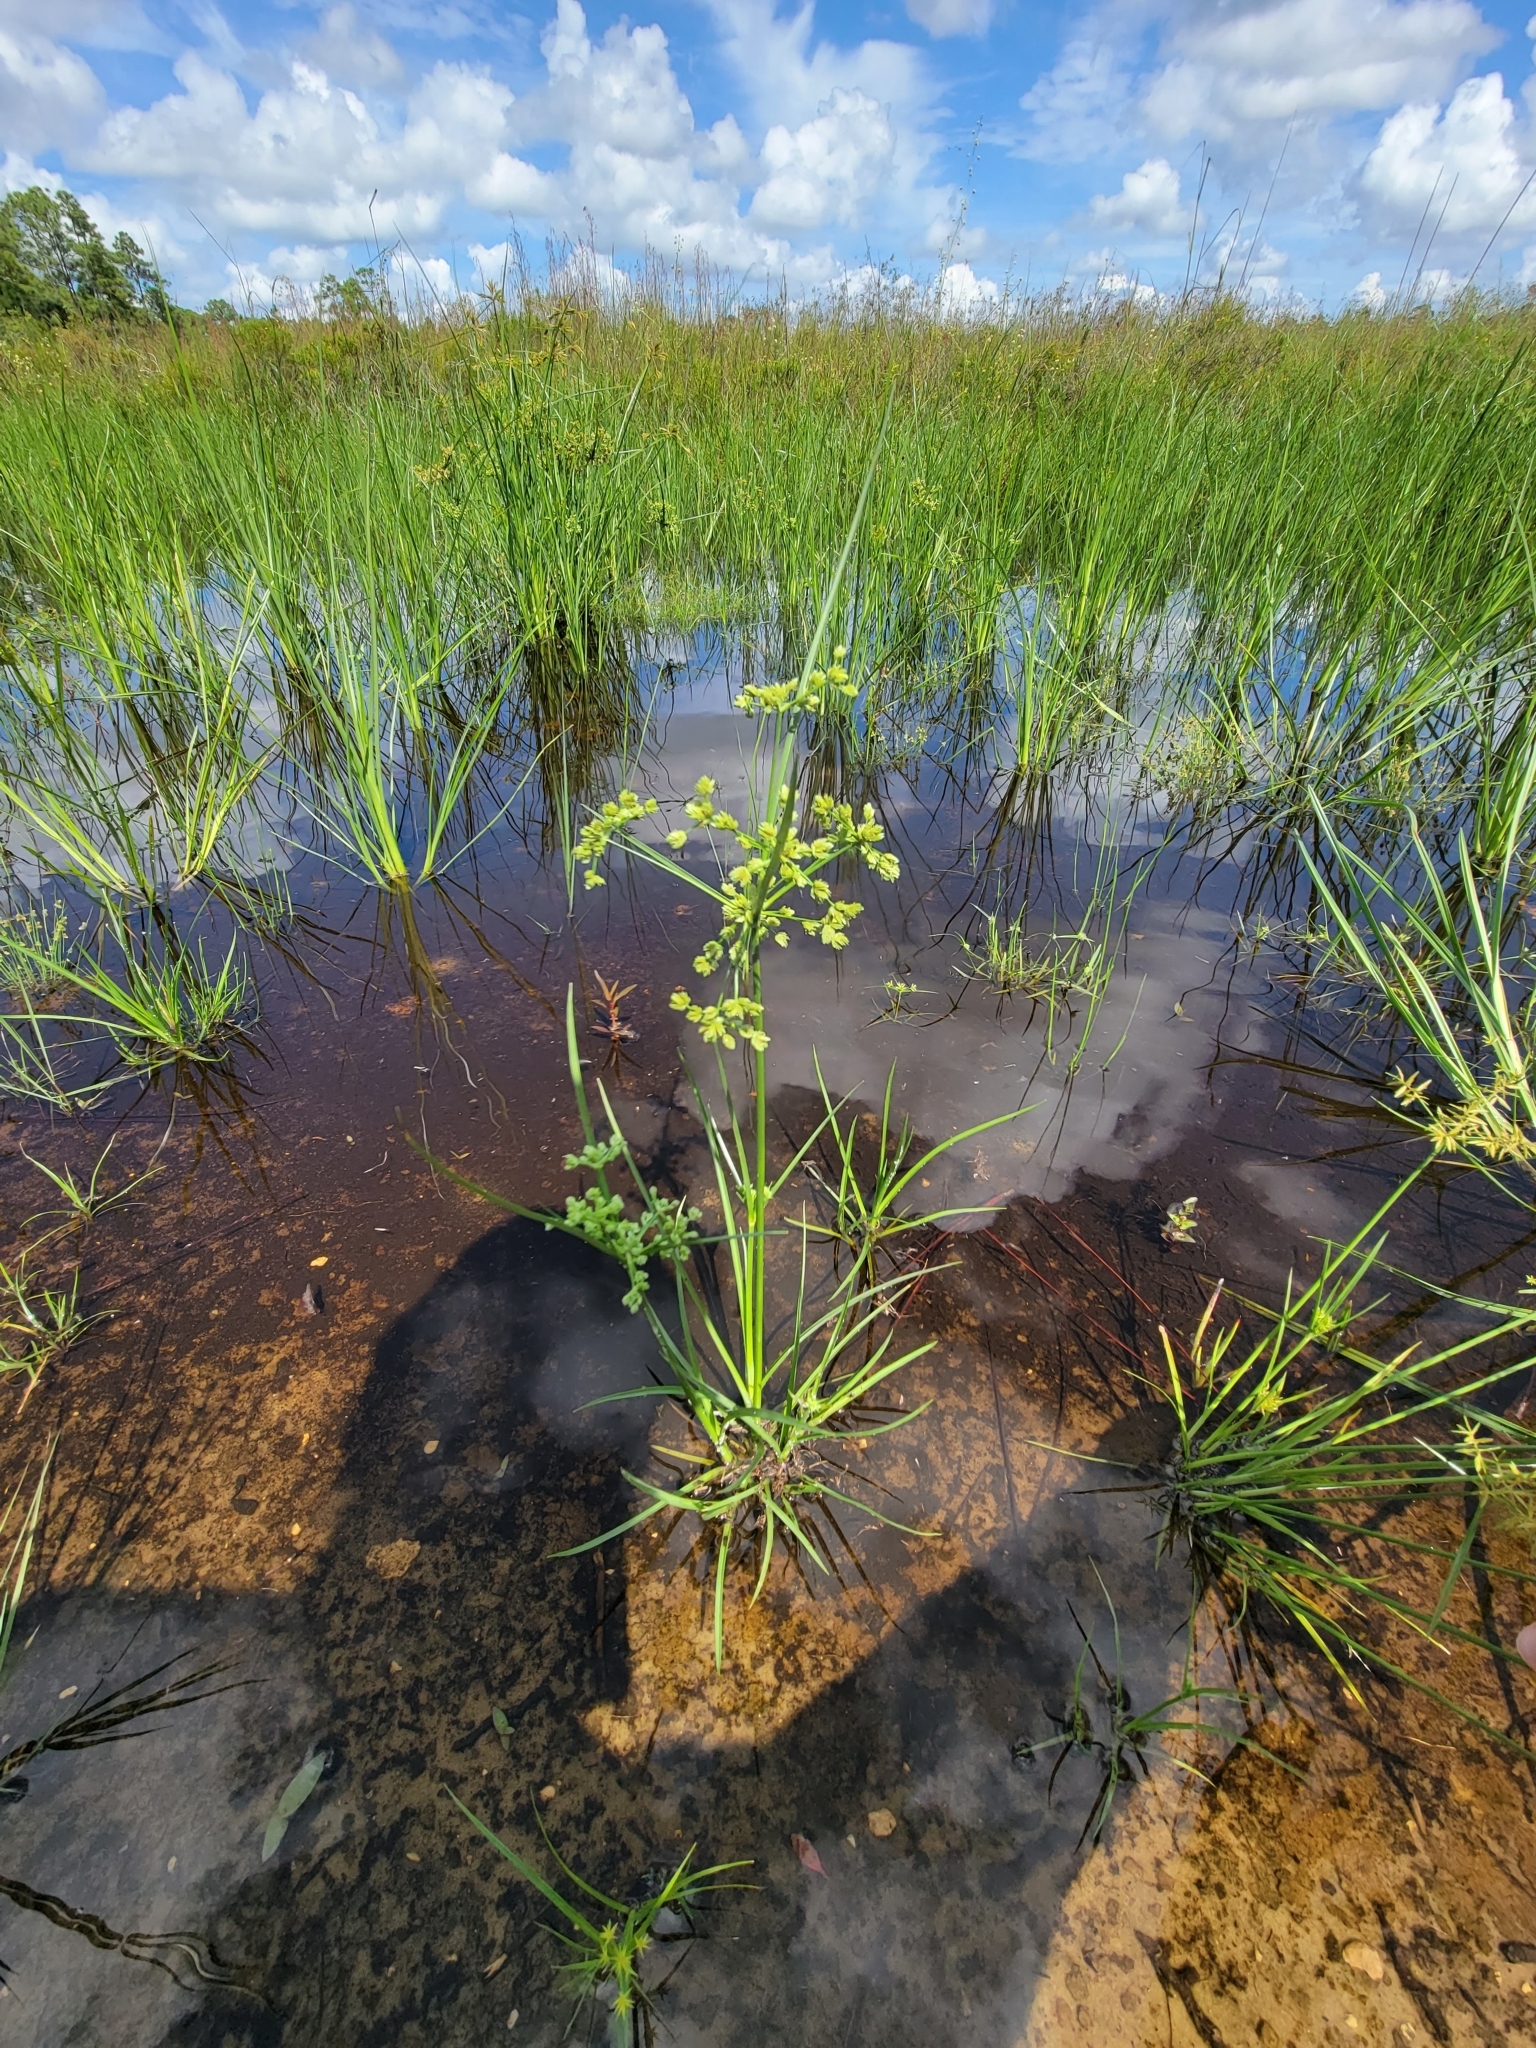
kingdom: Plantae
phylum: Tracheophyta
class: Liliopsida
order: Poales
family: Cyperaceae
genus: Cyperus
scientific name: Cyperus surinamensis
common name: Tropical flat sedge
